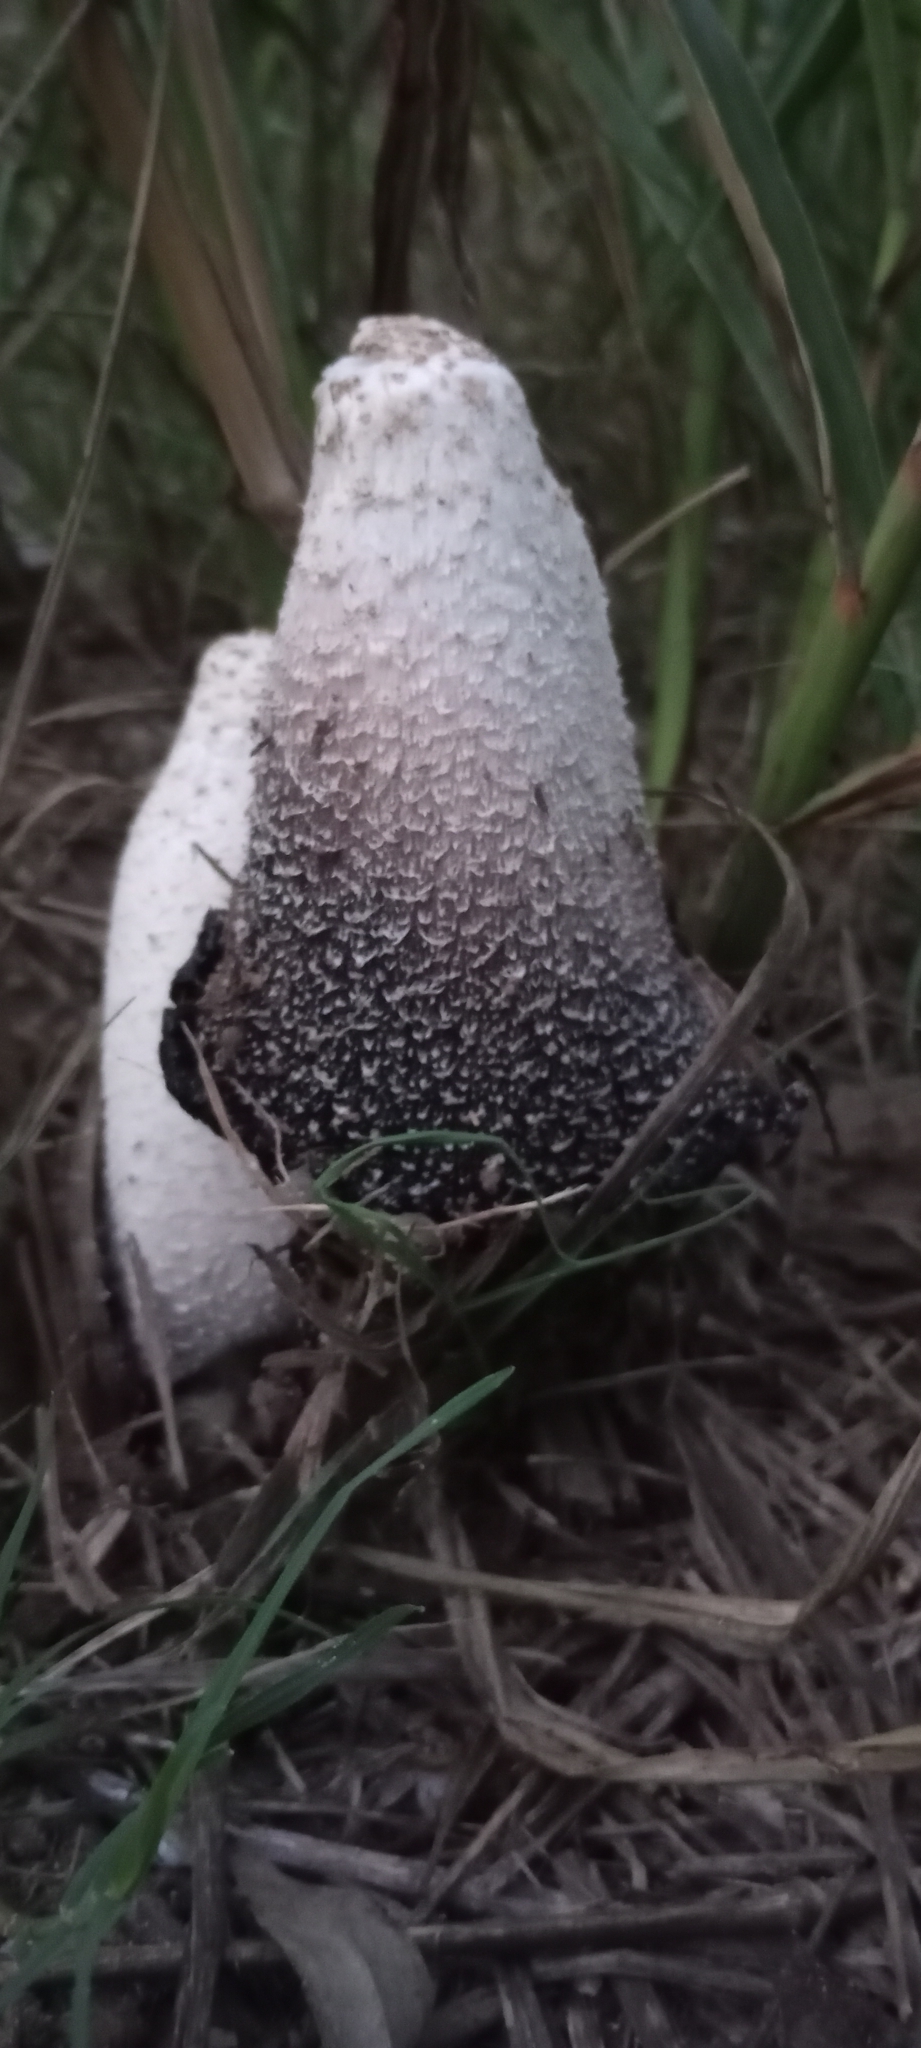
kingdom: Fungi
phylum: Basidiomycota
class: Agaricomycetes
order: Agaricales
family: Agaricaceae
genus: Coprinus
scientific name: Coprinus comatus
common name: Lawyer's wig
